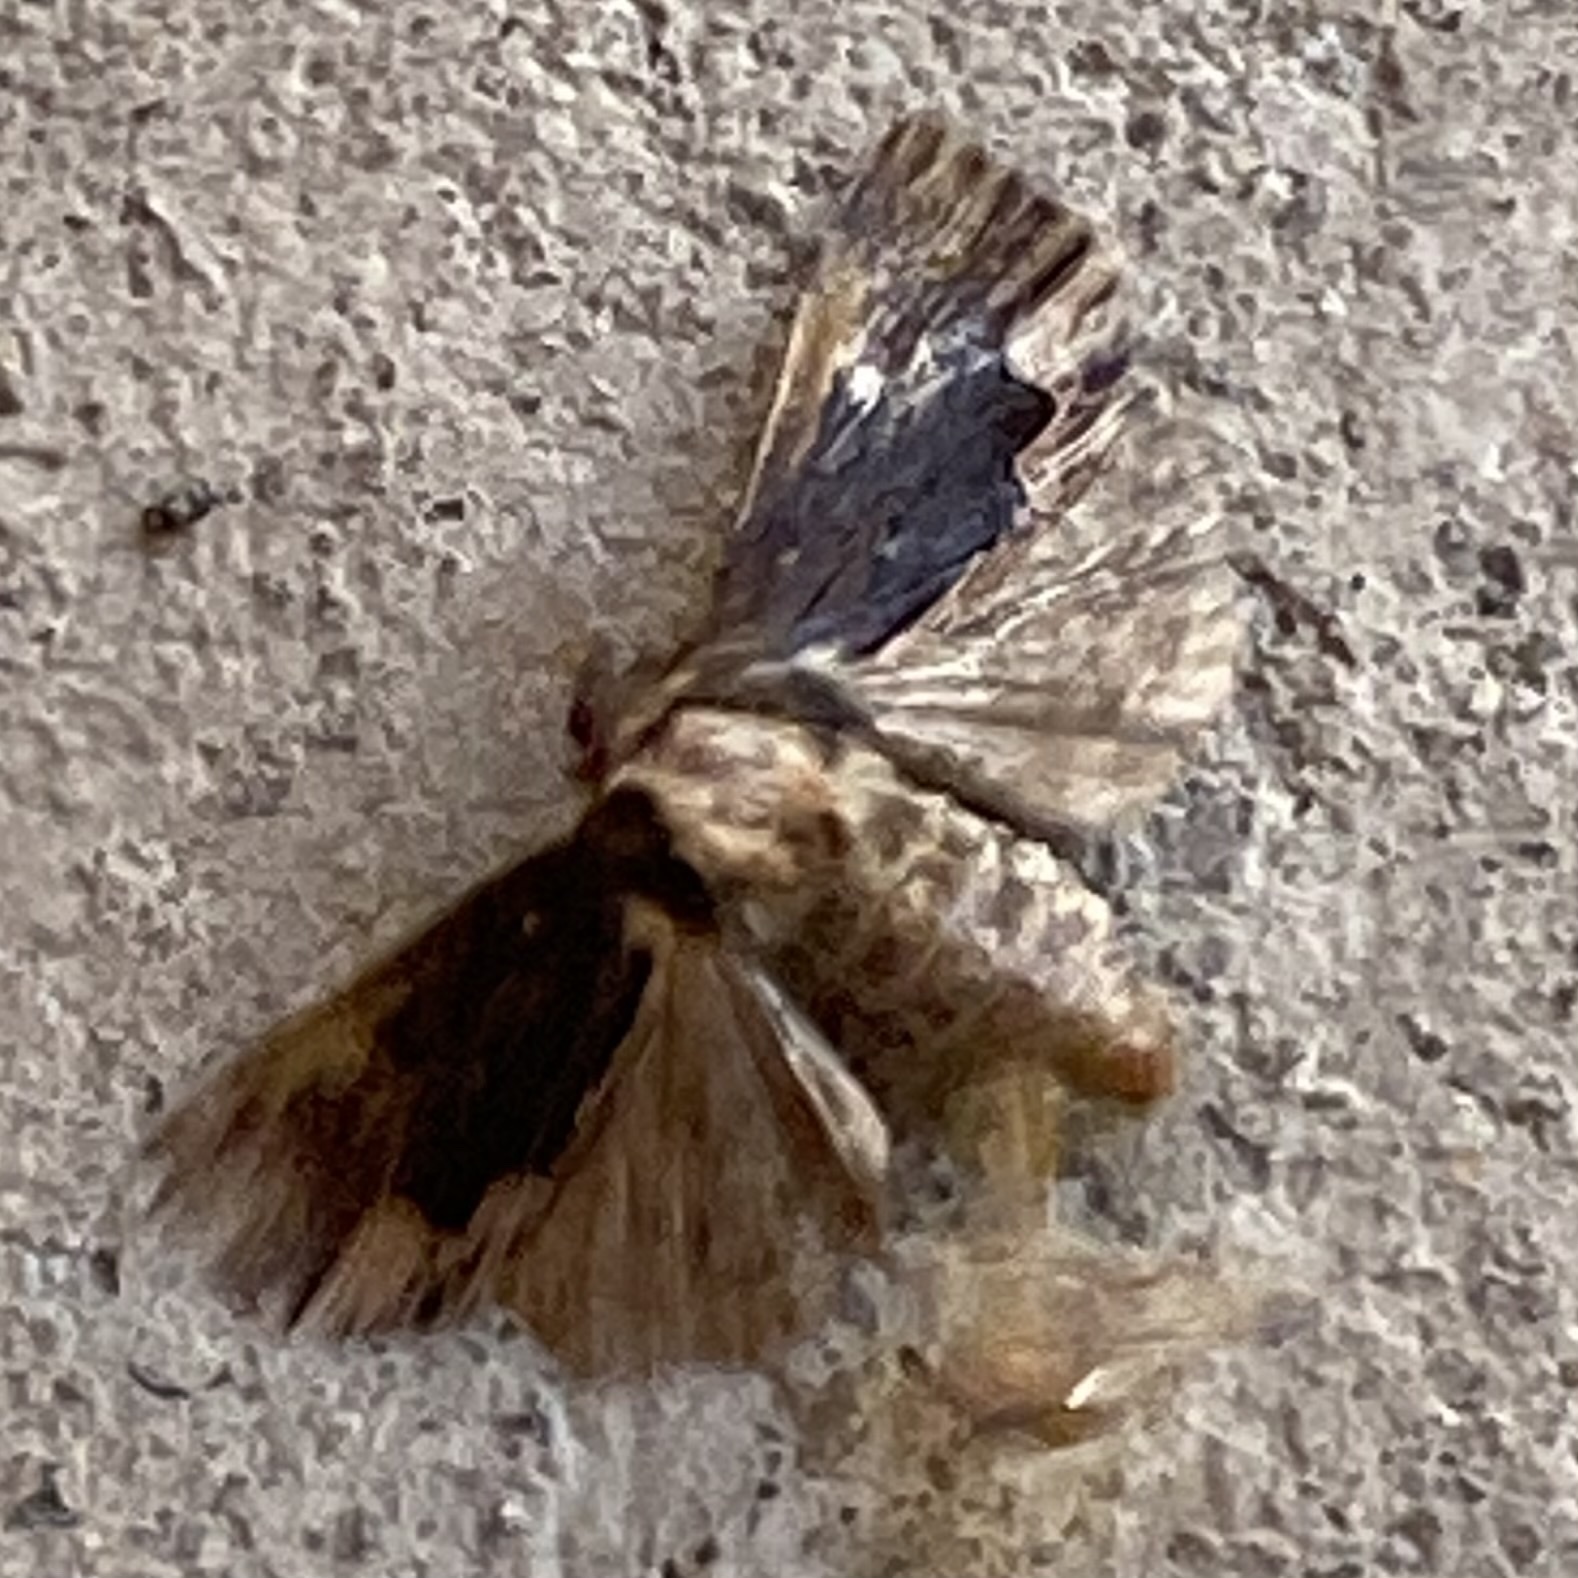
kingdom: Animalia
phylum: Arthropoda
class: Insecta
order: Lepidoptera
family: Noctuidae
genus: Dypterygia
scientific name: Dypterygia scabriuscula
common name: Bird's wing
